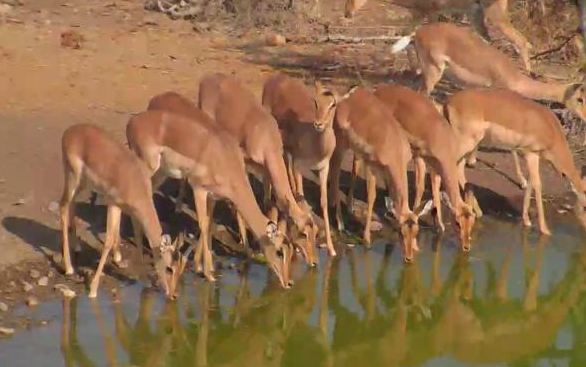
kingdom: Animalia
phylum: Chordata
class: Mammalia
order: Artiodactyla
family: Bovidae
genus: Aepyceros
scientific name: Aepyceros melampus
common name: Impala
